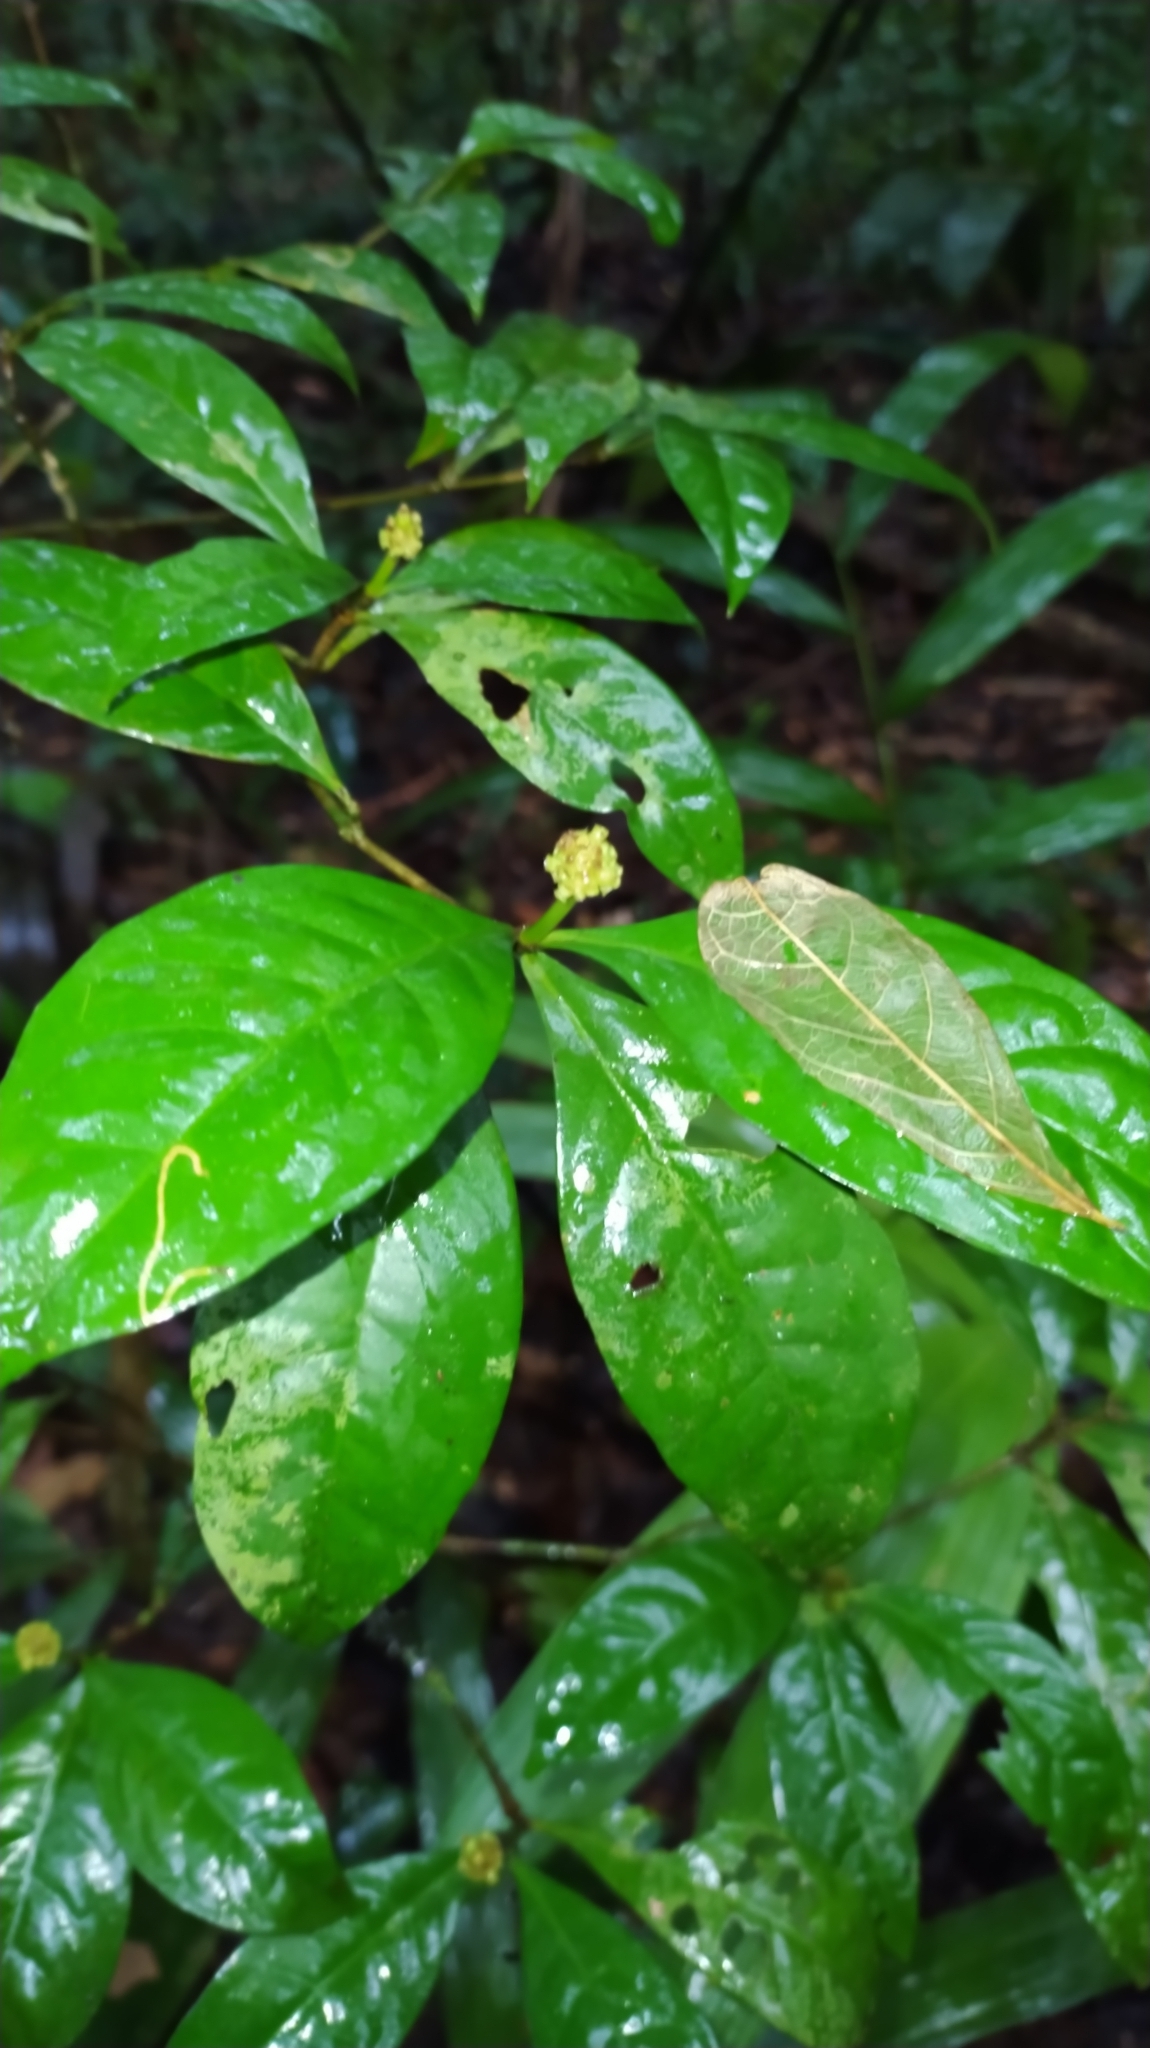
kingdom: Plantae
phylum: Tracheophyta
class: Magnoliopsida
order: Gentianales
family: Rubiaceae
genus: Eumachia
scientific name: Eumachia guianensis
